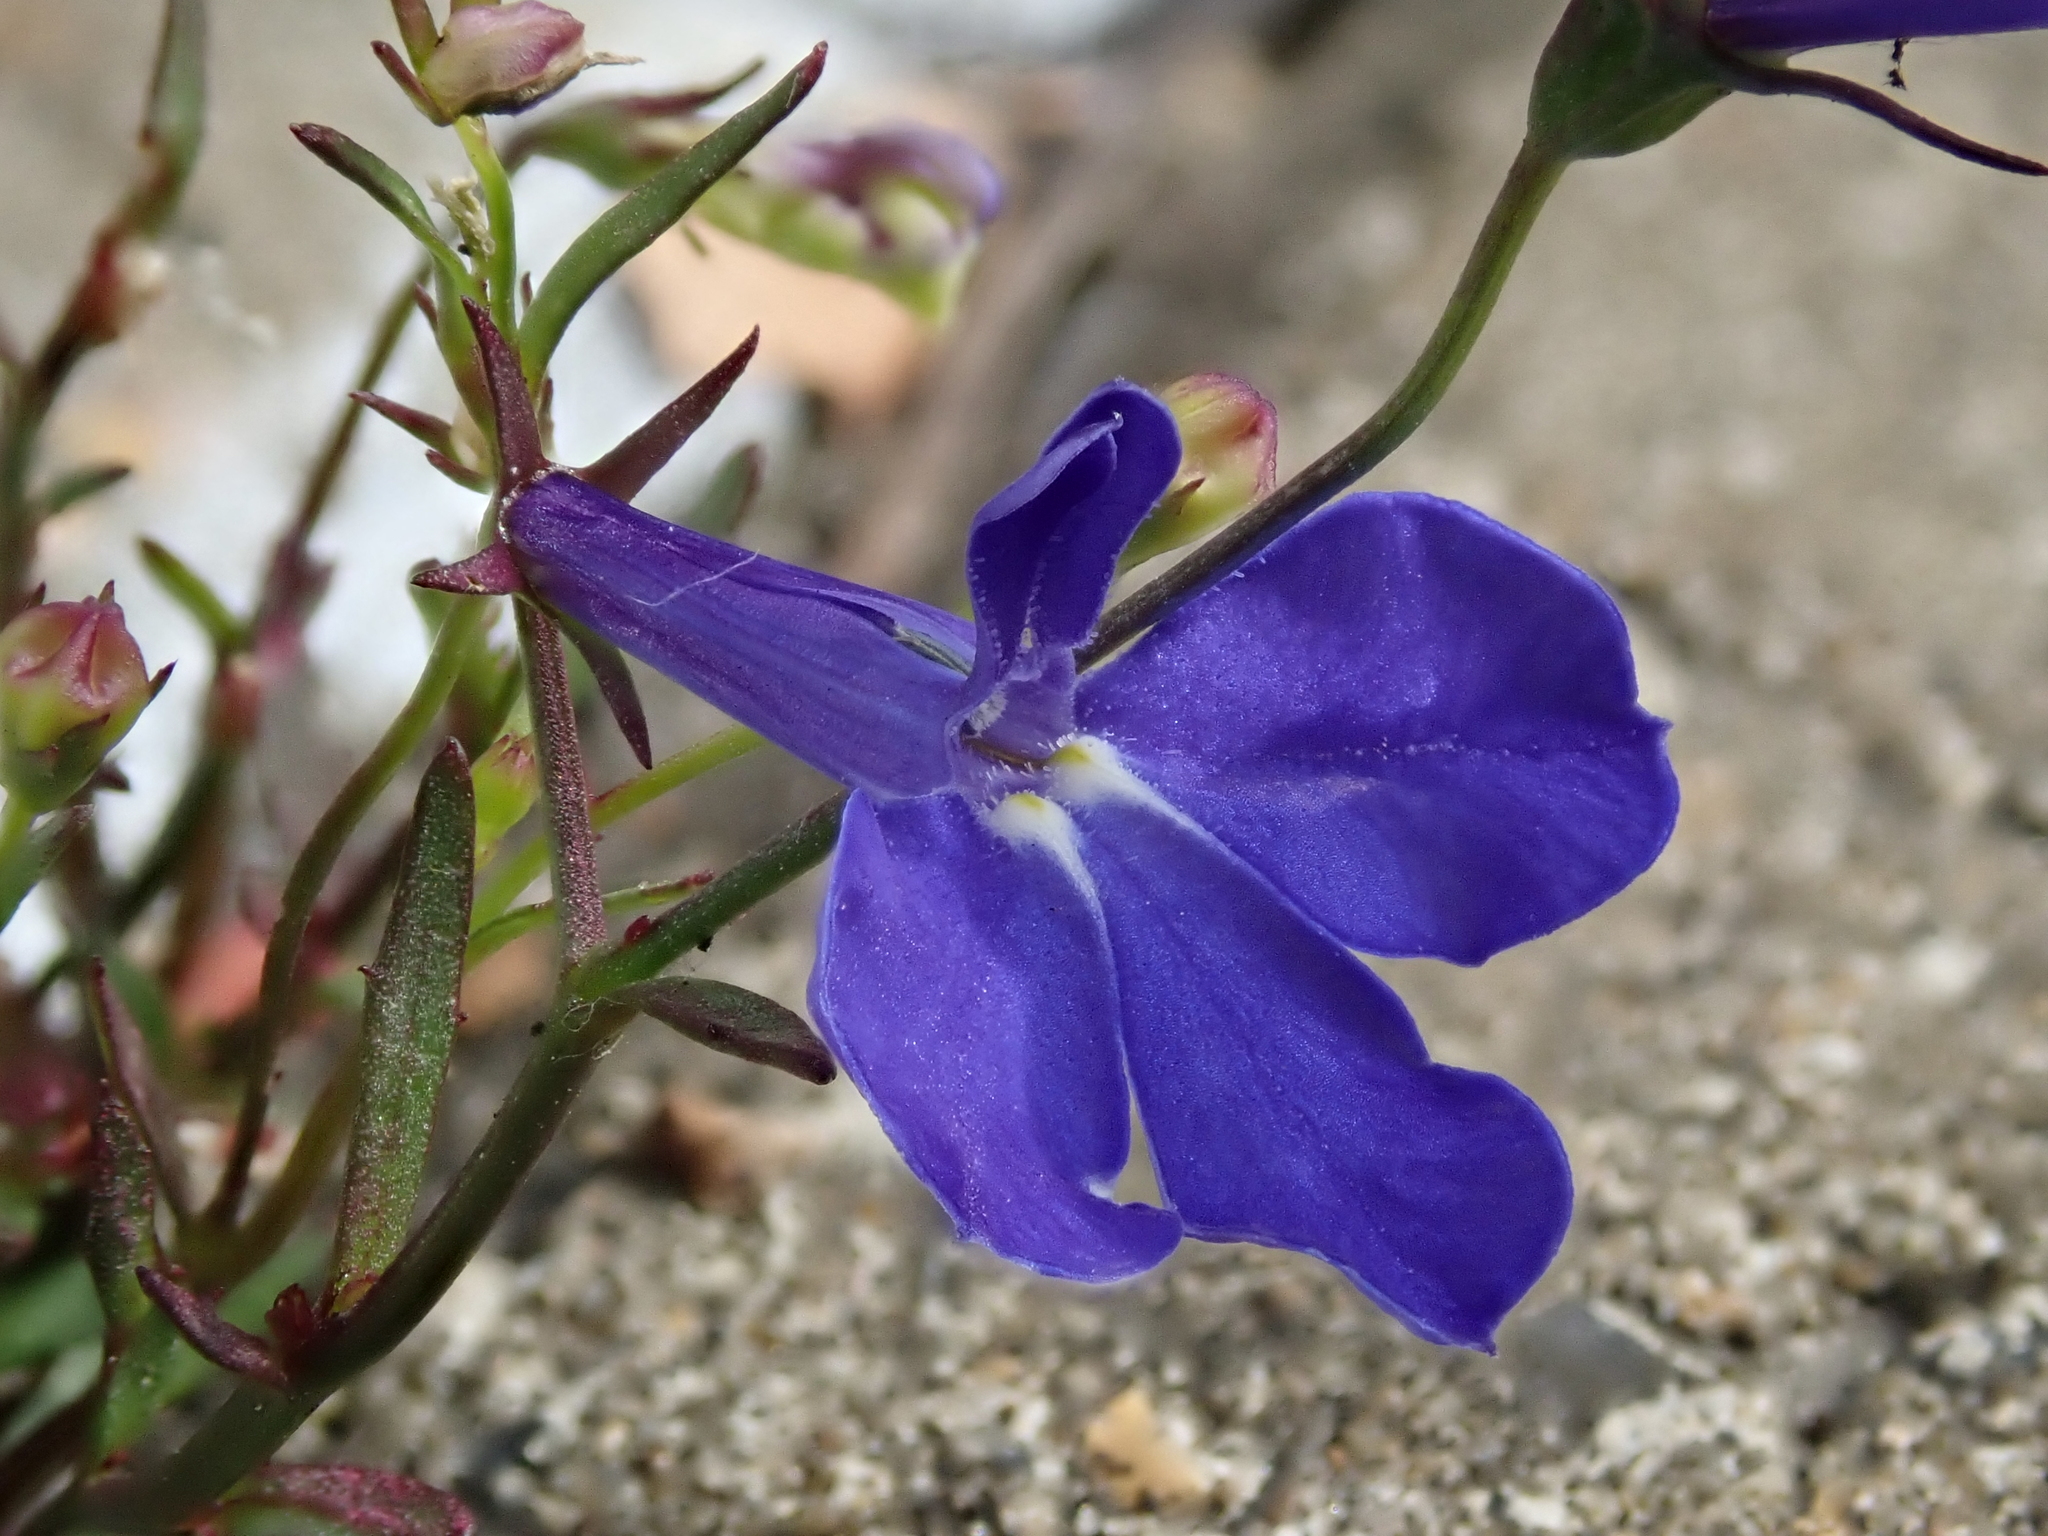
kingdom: Plantae
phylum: Tracheophyta
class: Magnoliopsida
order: Asterales
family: Campanulaceae
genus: Lobelia
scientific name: Lobelia erinus
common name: Edging lobelia
